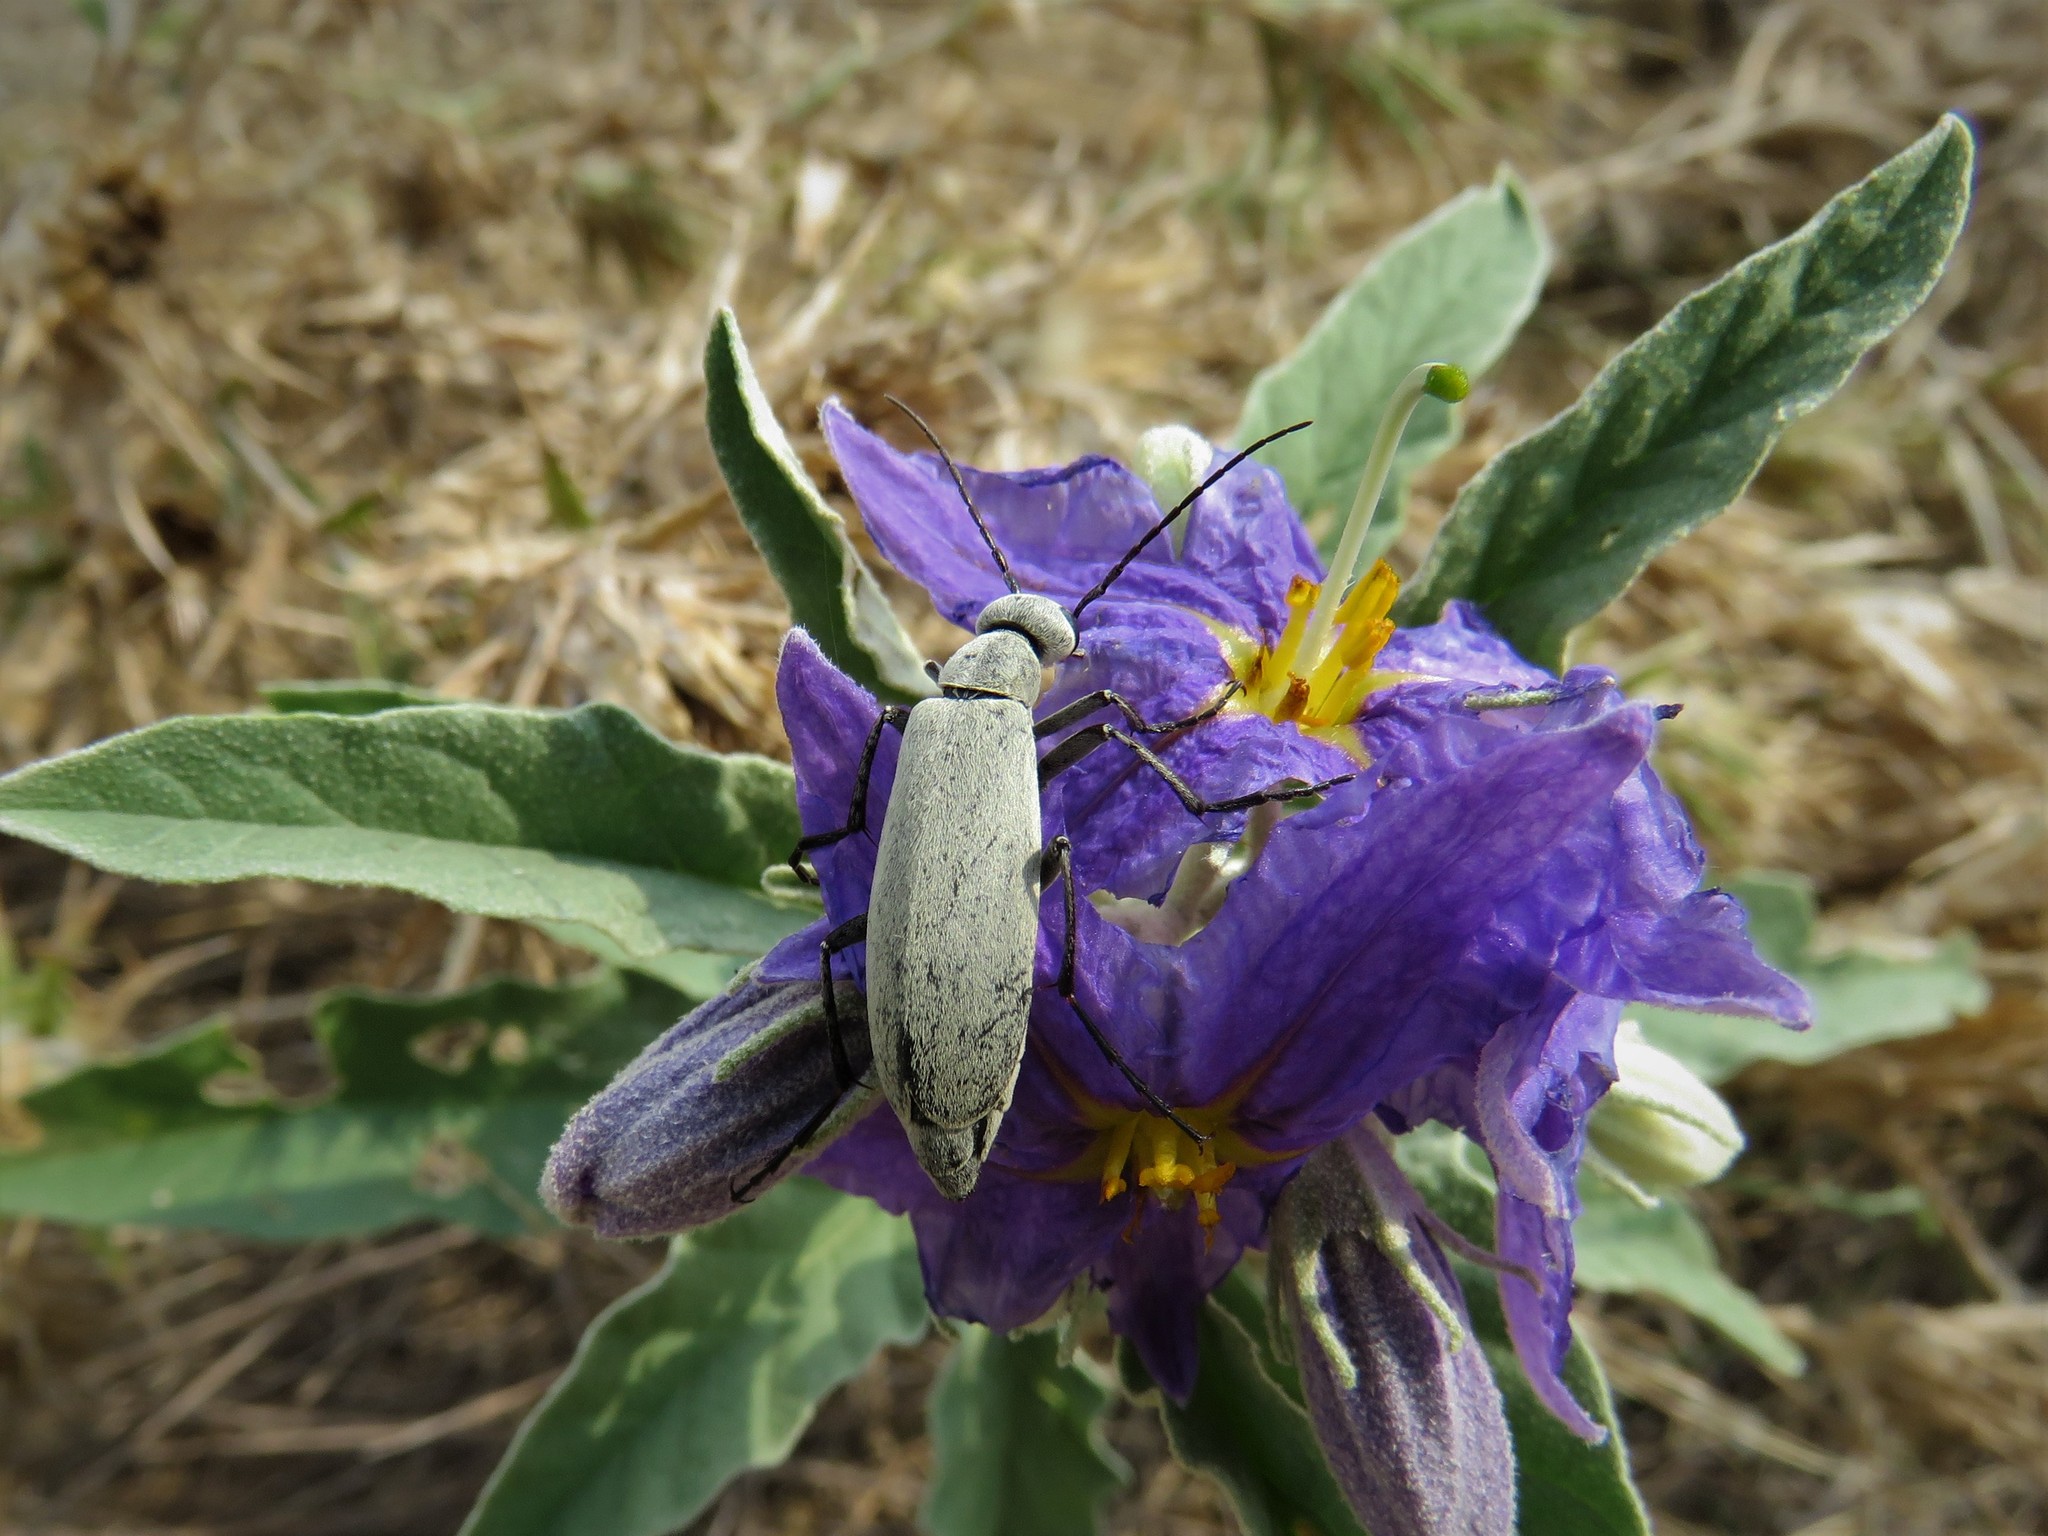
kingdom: Animalia
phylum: Arthropoda
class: Insecta
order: Coleoptera
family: Meloidae
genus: Epicauta
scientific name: Epicauta immaculata
